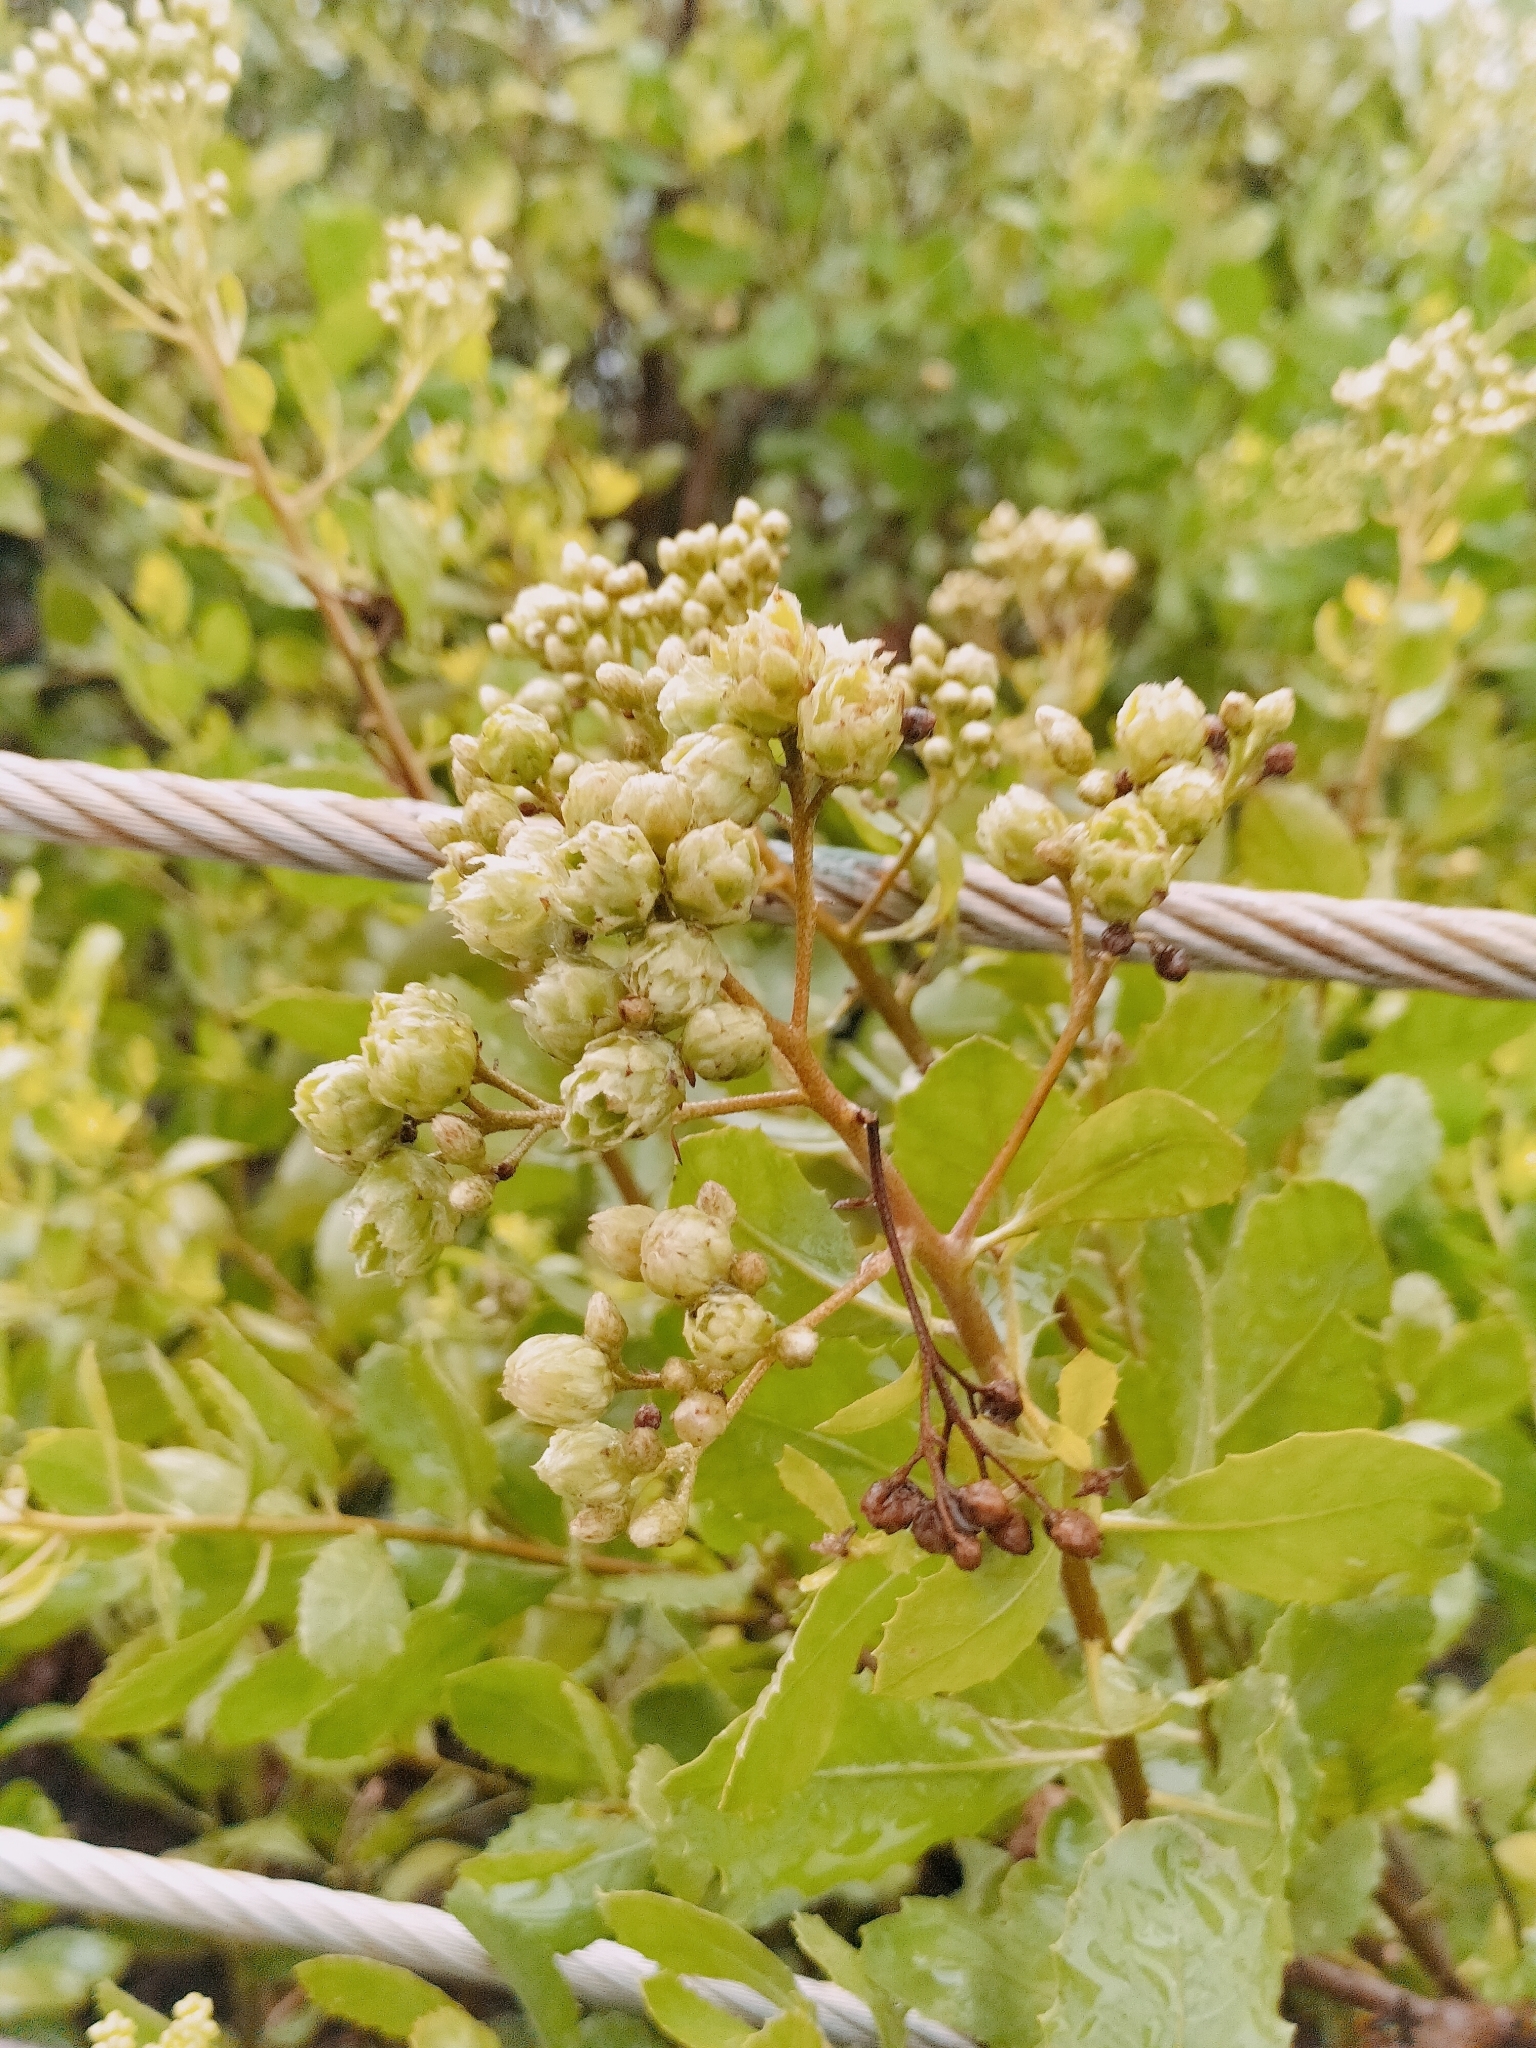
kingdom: Plantae
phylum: Tracheophyta
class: Magnoliopsida
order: Asterales
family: Asteraceae
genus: Pluchea
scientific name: Pluchea indica
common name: Indian fleabane
